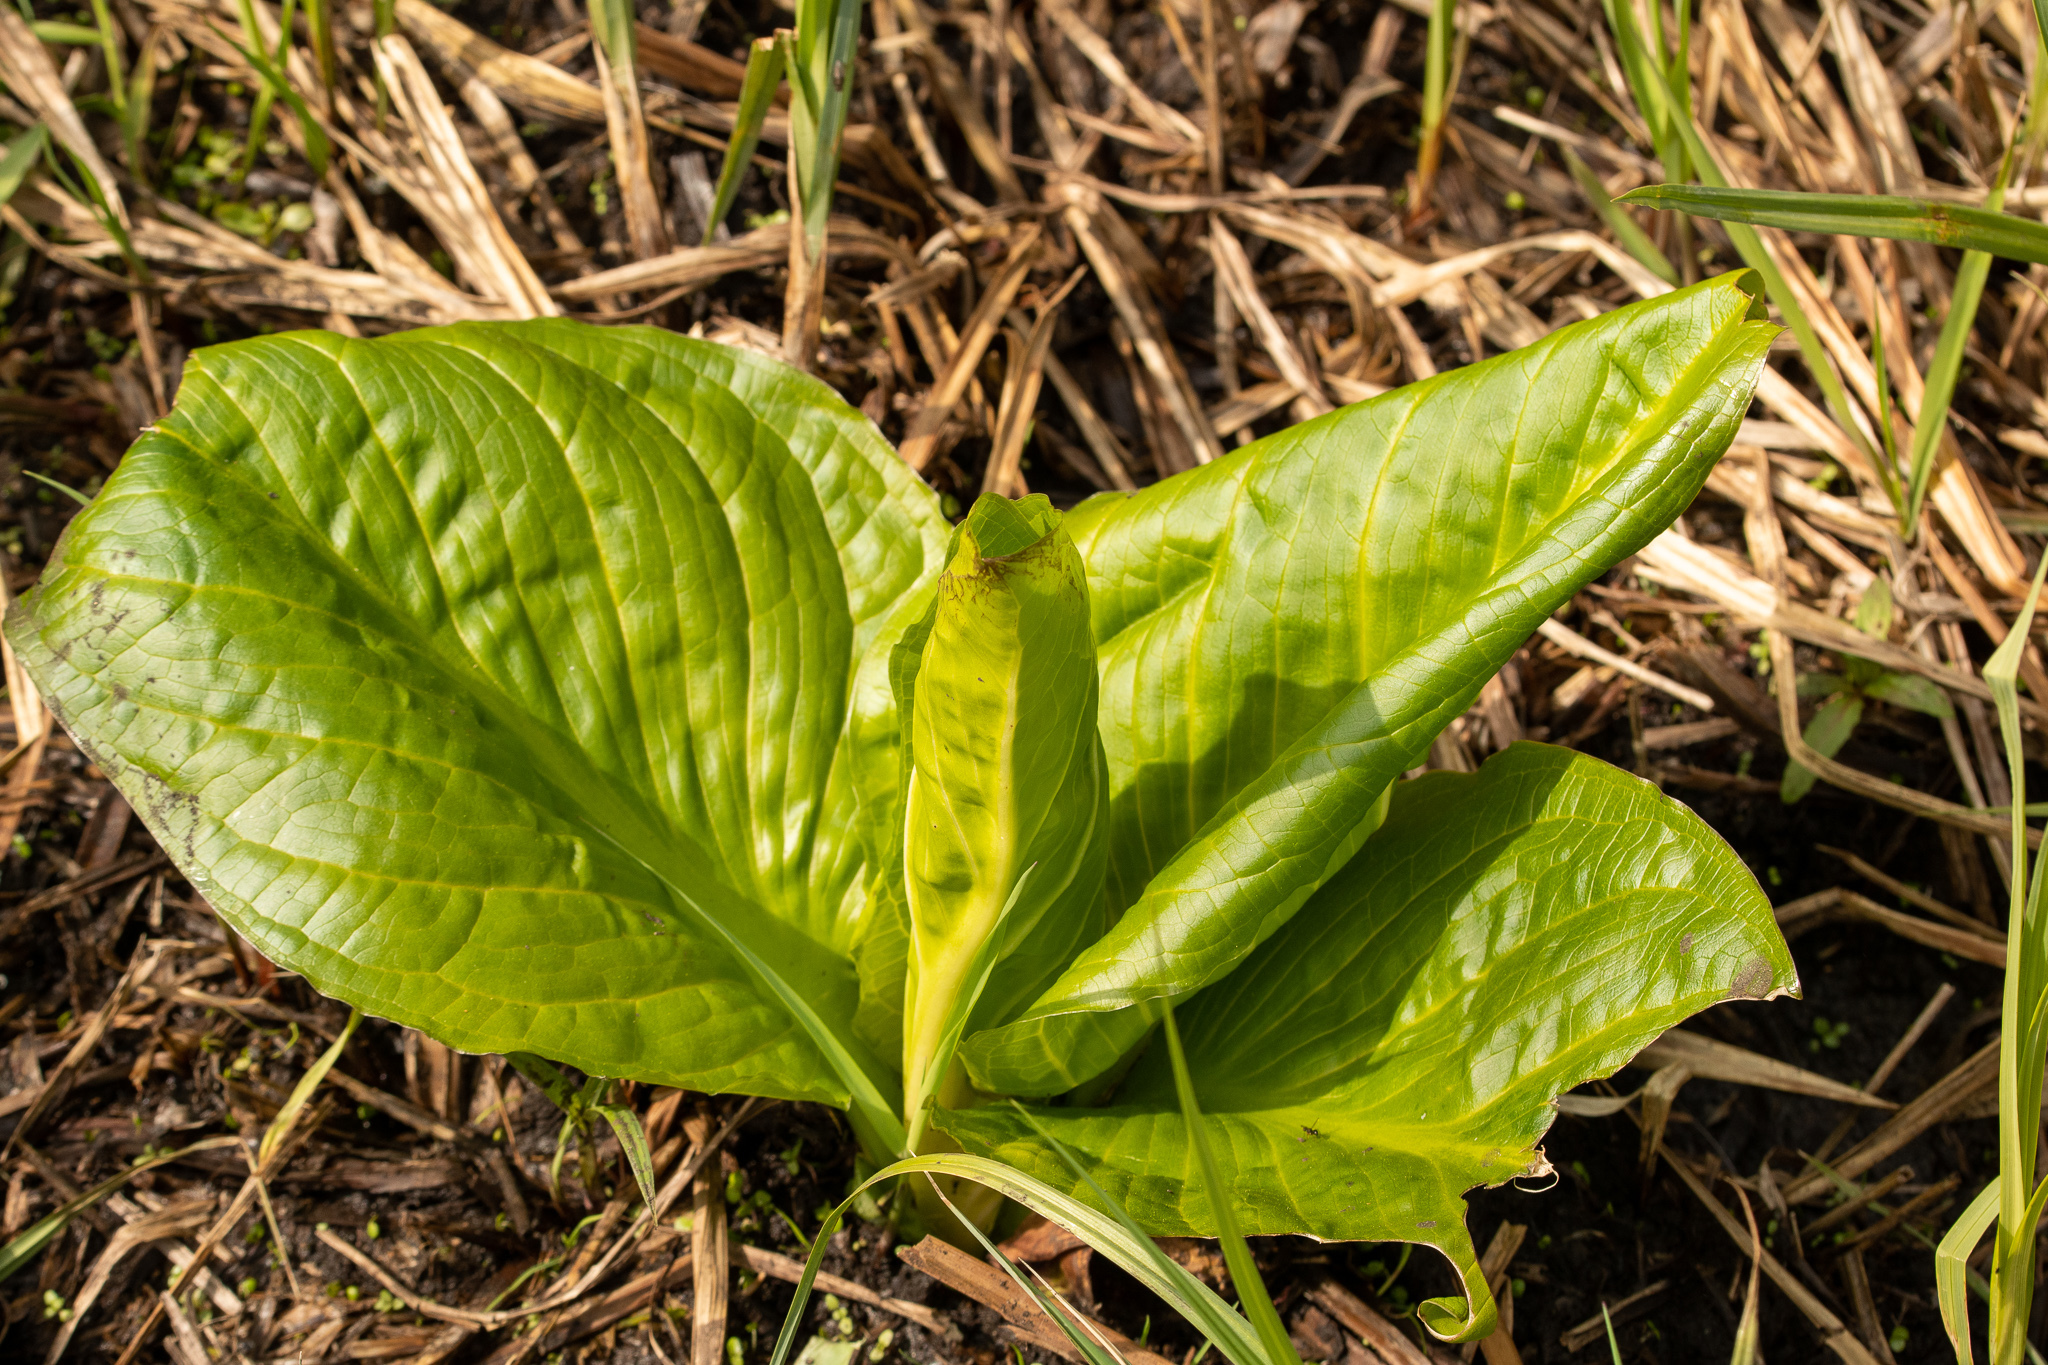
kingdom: Plantae
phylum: Tracheophyta
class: Liliopsida
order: Alismatales
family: Araceae
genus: Symplocarpus
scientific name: Symplocarpus foetidus
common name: Eastern skunk cabbage
